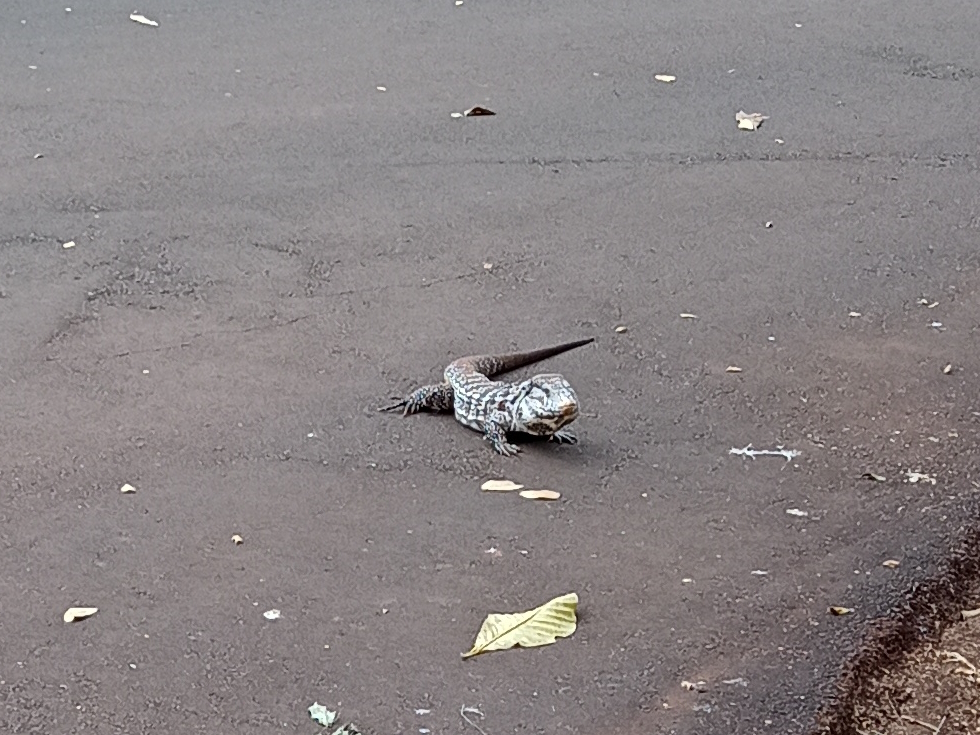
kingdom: Animalia
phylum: Chordata
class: Squamata
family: Teiidae
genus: Salvator
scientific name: Salvator merianae
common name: Argentine black and white tegu
